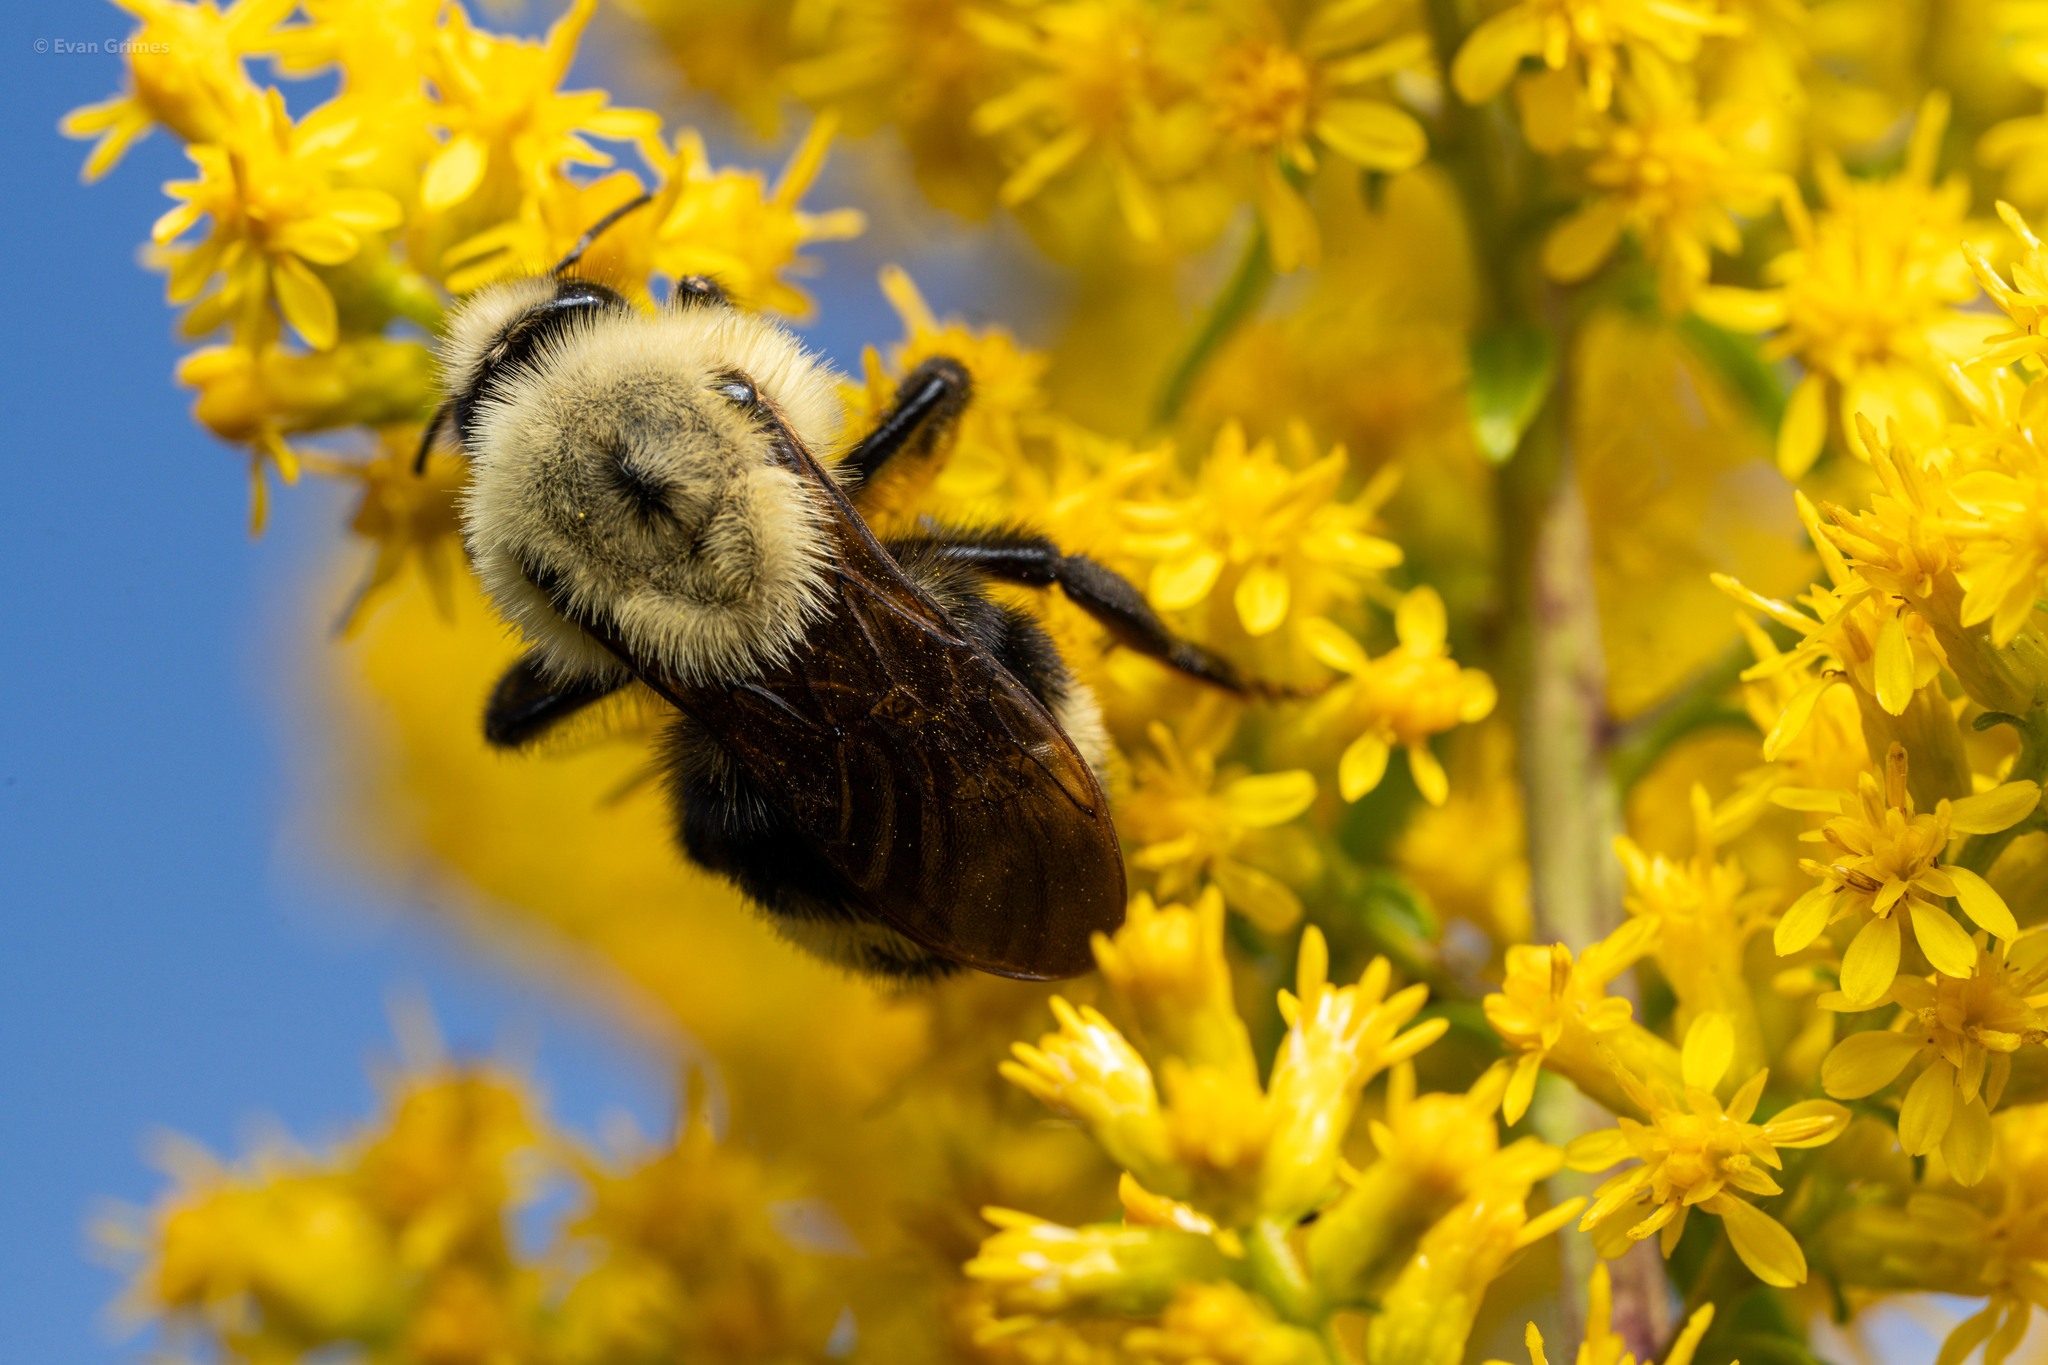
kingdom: Animalia
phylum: Arthropoda
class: Insecta
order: Hymenoptera
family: Apidae
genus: Bombus
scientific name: Bombus citrinus
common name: Lemon cuckoo bumble bee
